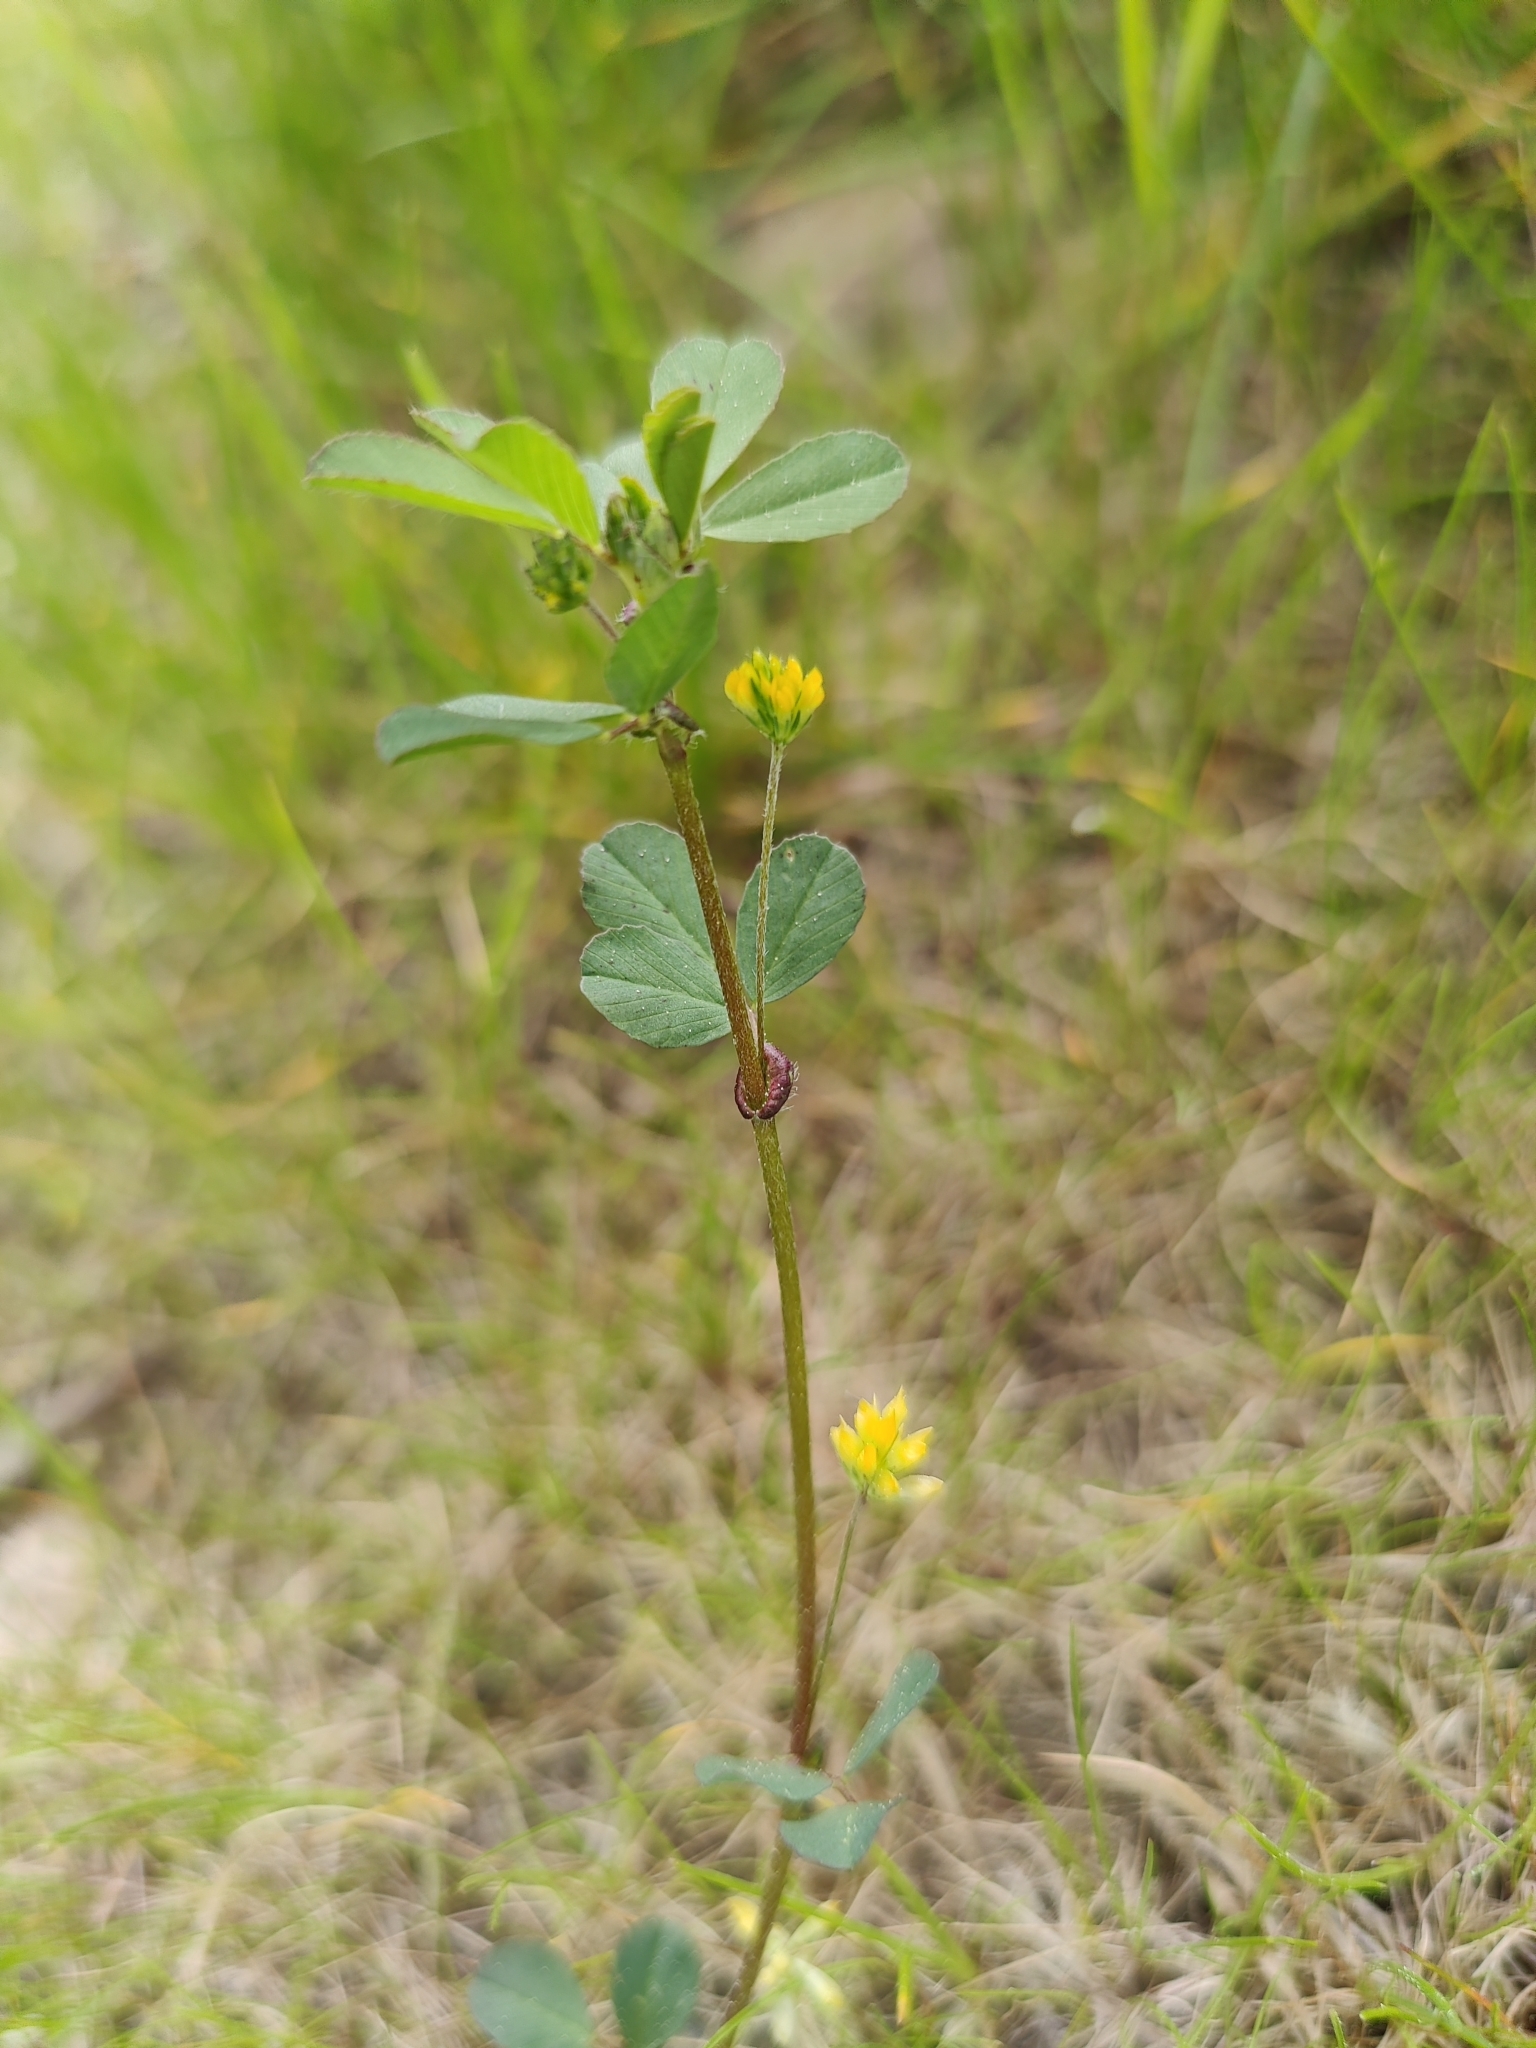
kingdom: Plantae
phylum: Tracheophyta
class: Magnoliopsida
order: Fabales
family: Fabaceae
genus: Trifolium
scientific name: Trifolium dubium
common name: Suckling clover
